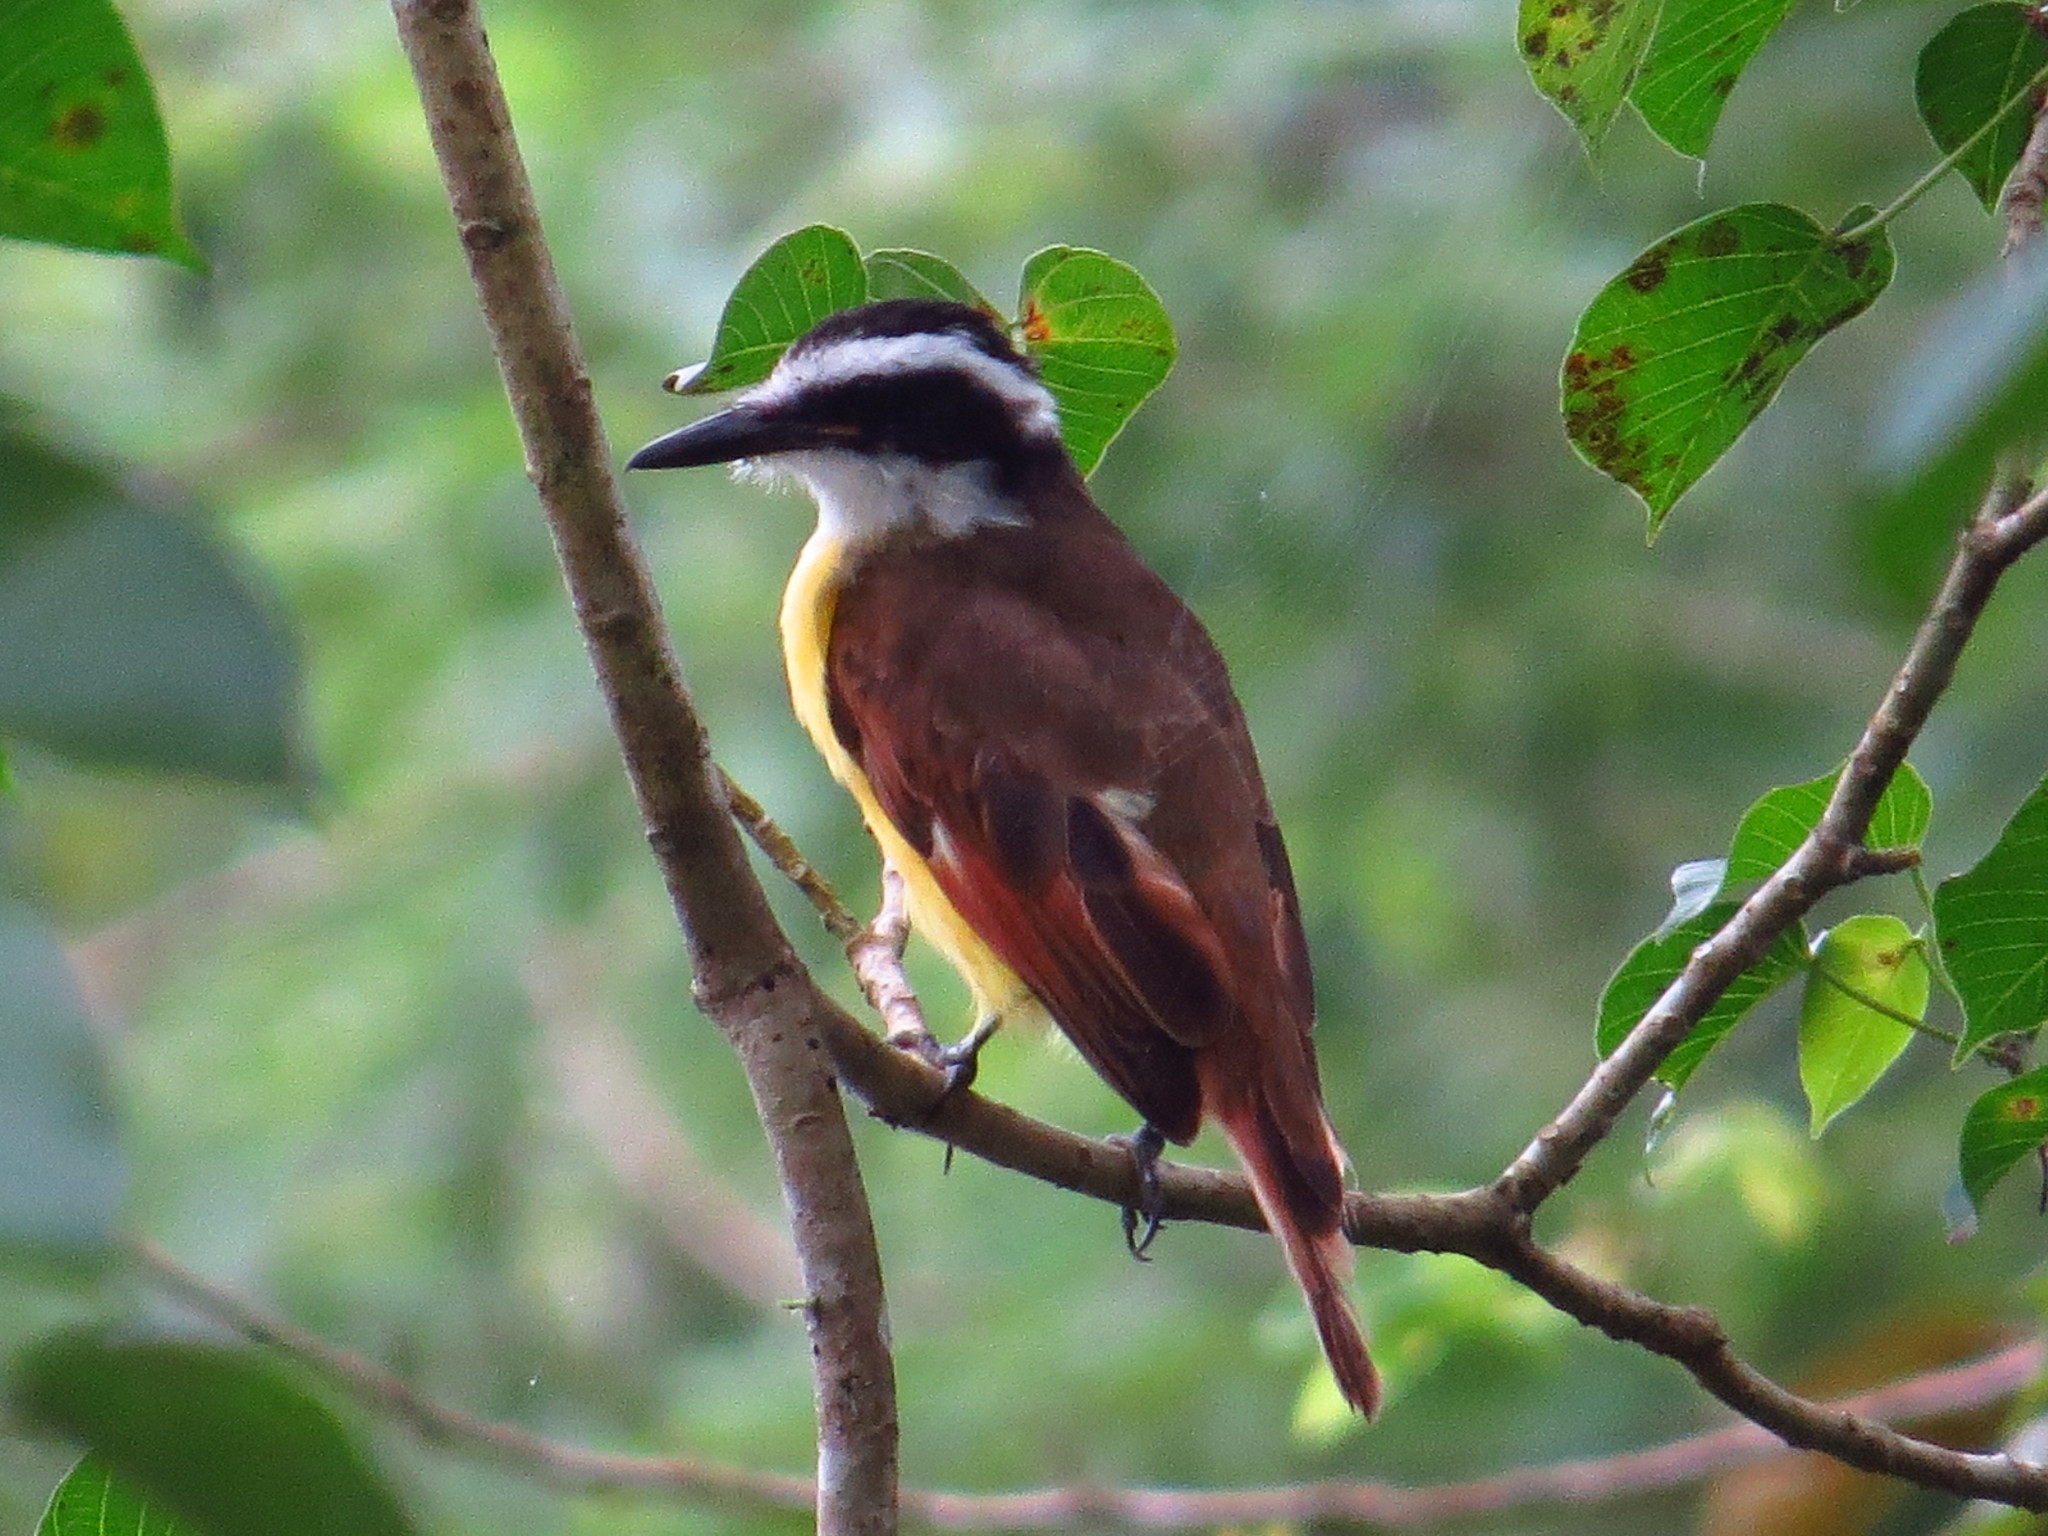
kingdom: Animalia
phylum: Chordata
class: Aves
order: Passeriformes
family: Tyrannidae
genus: Pitangus
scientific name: Pitangus sulphuratus
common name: Great kiskadee
